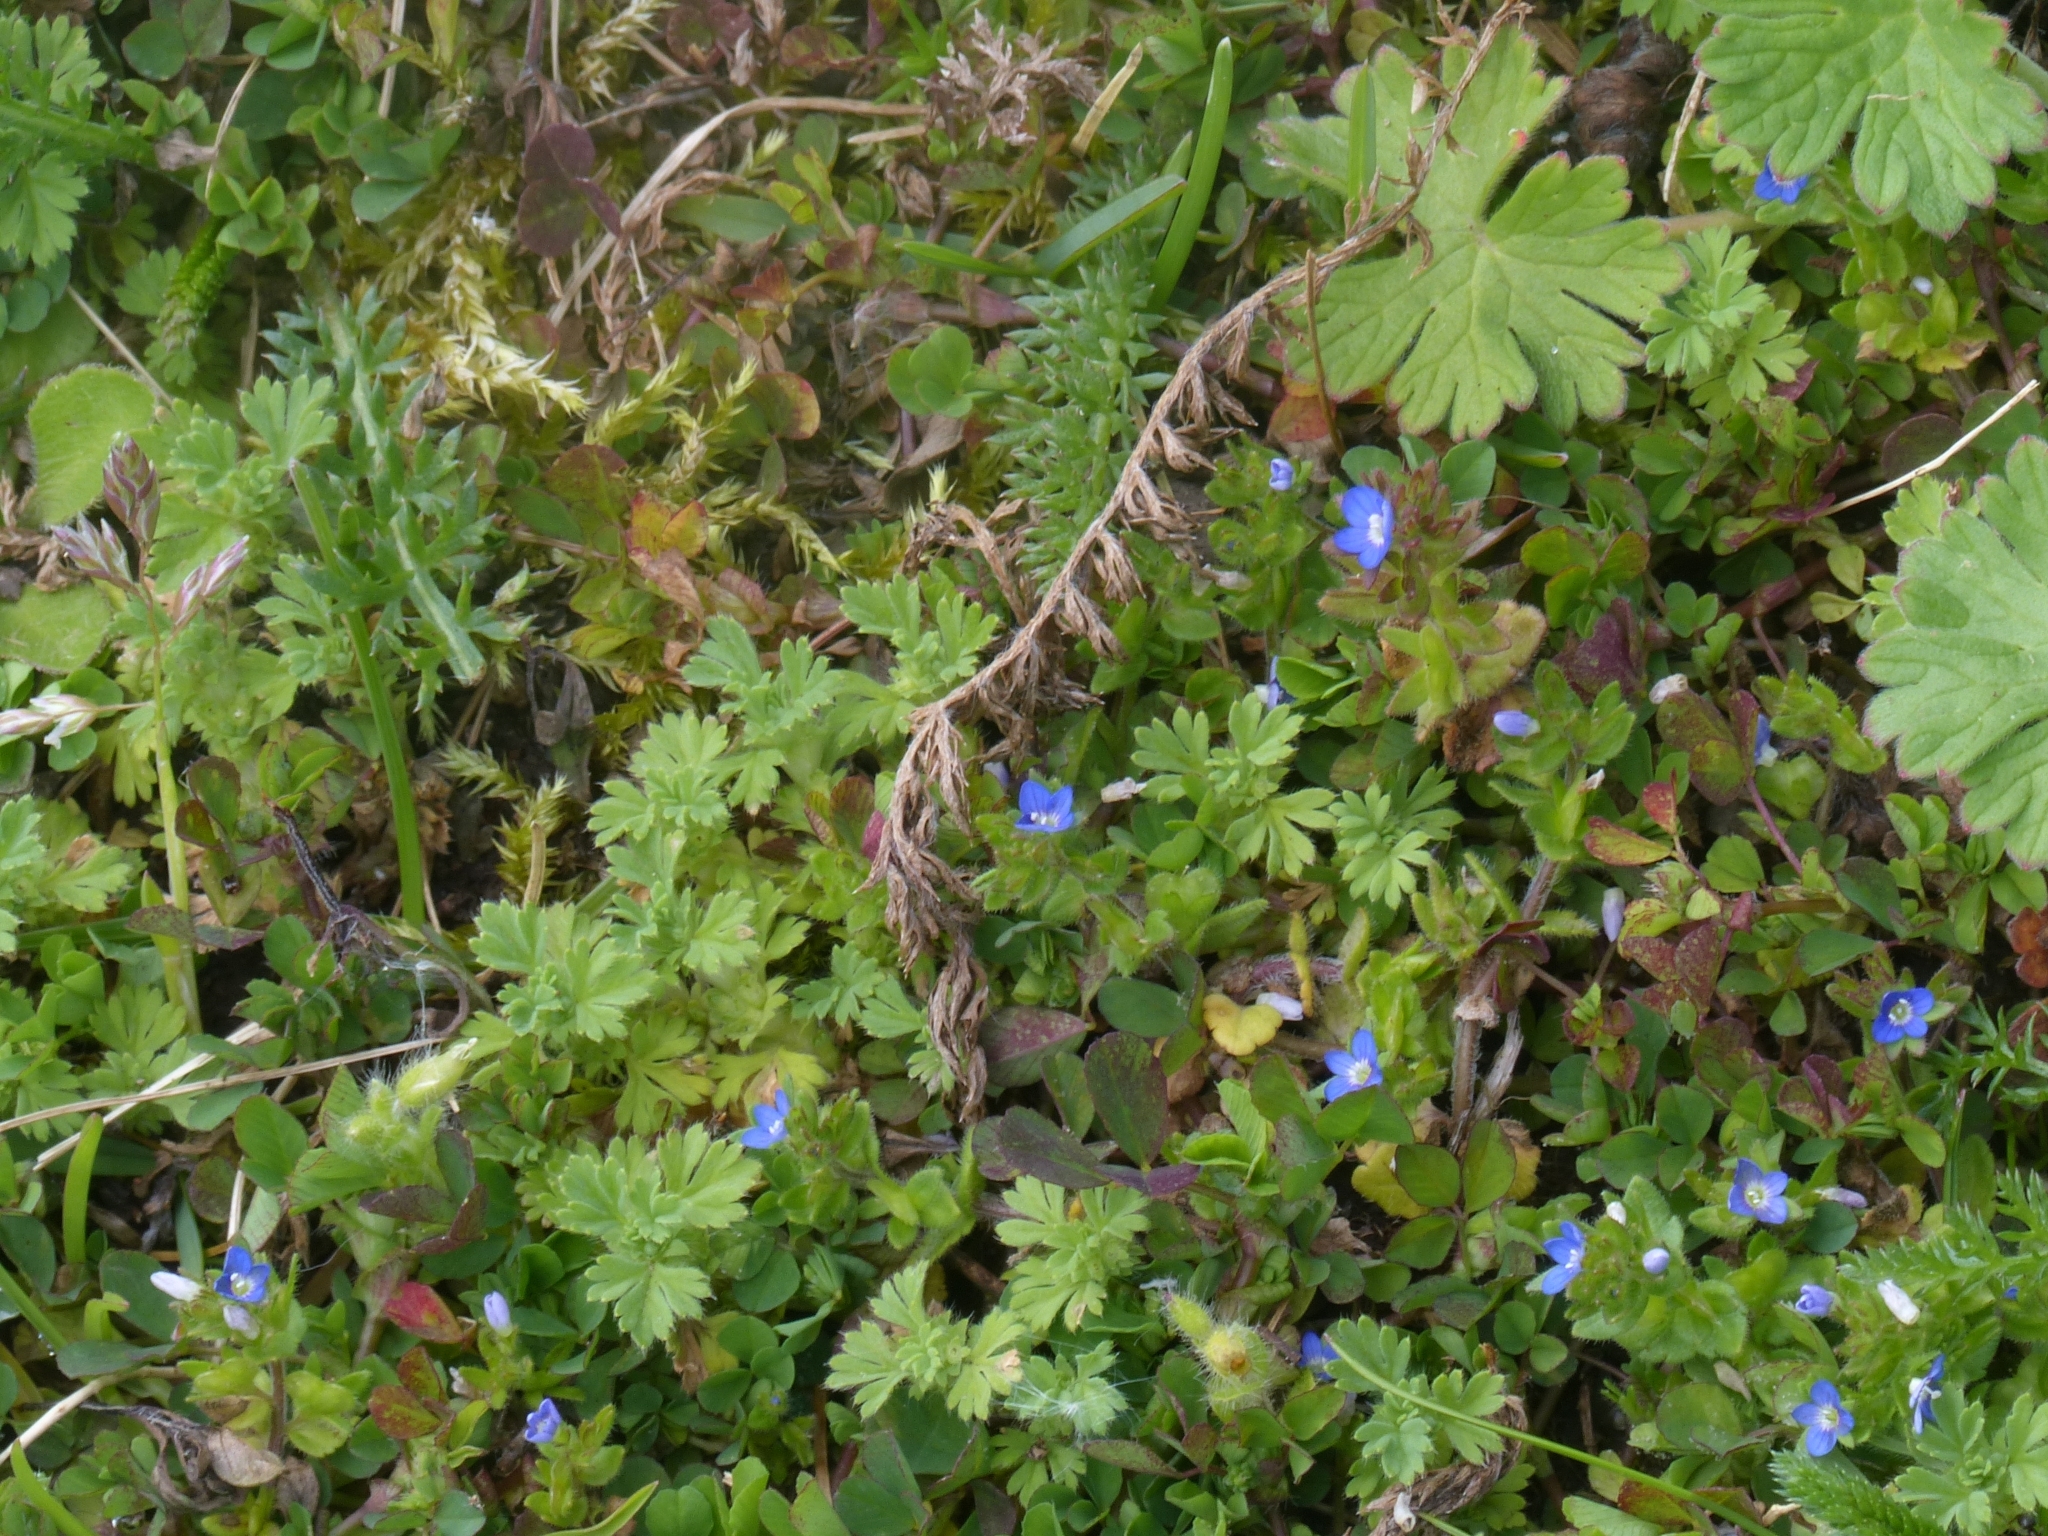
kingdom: Plantae
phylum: Tracheophyta
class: Magnoliopsida
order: Lamiales
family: Plantaginaceae
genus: Veronica
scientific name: Veronica arvensis
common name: Corn speedwell
